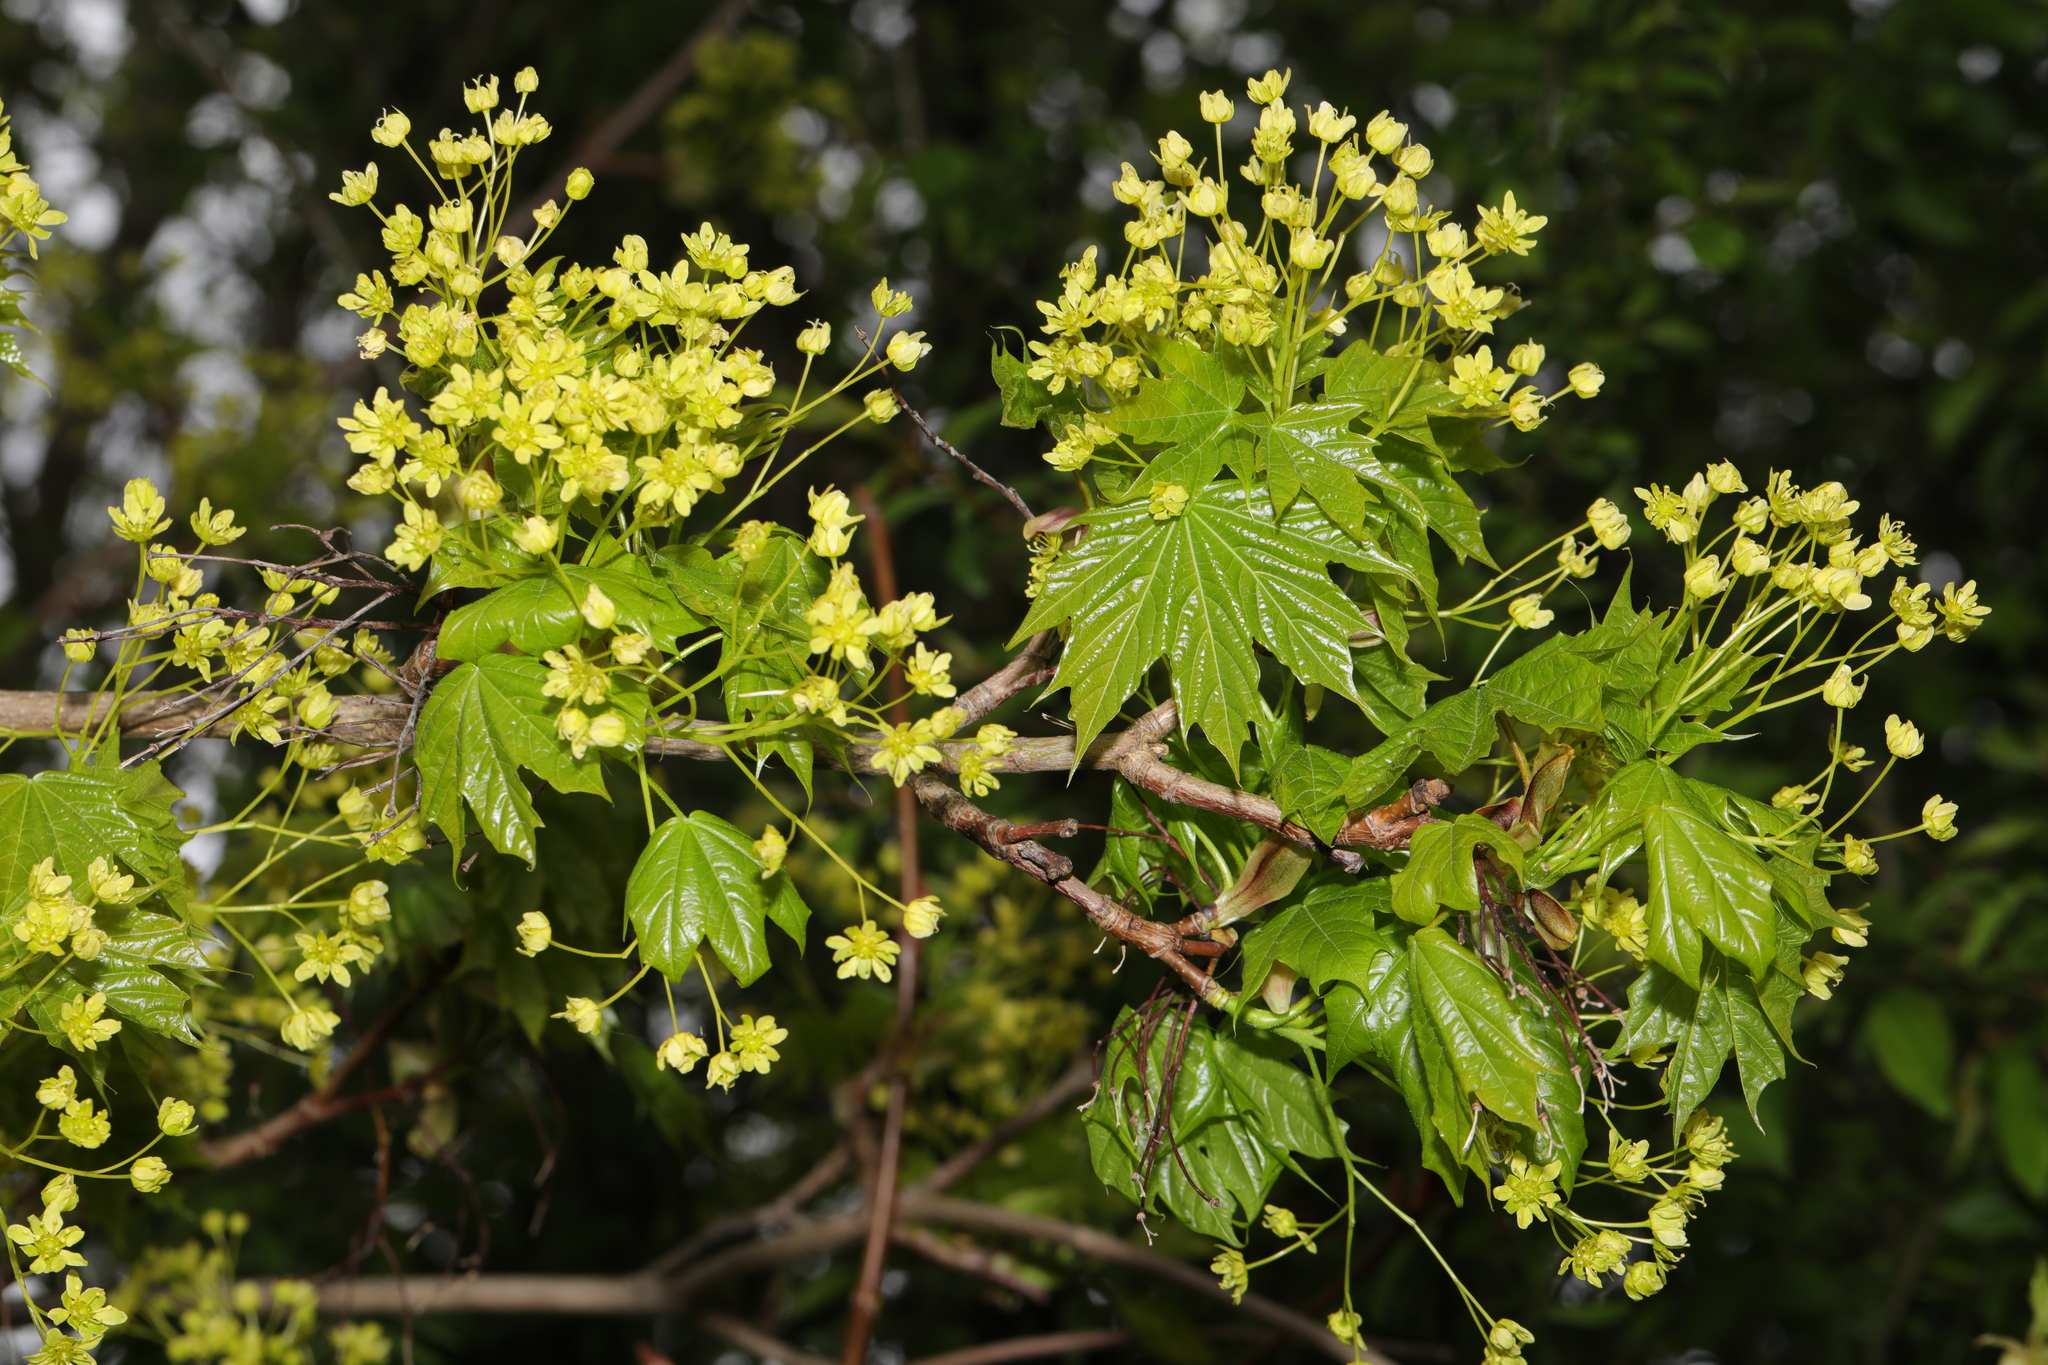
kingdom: Plantae
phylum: Tracheophyta
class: Magnoliopsida
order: Sapindales
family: Sapindaceae
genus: Acer
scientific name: Acer platanoides
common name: Norway maple
